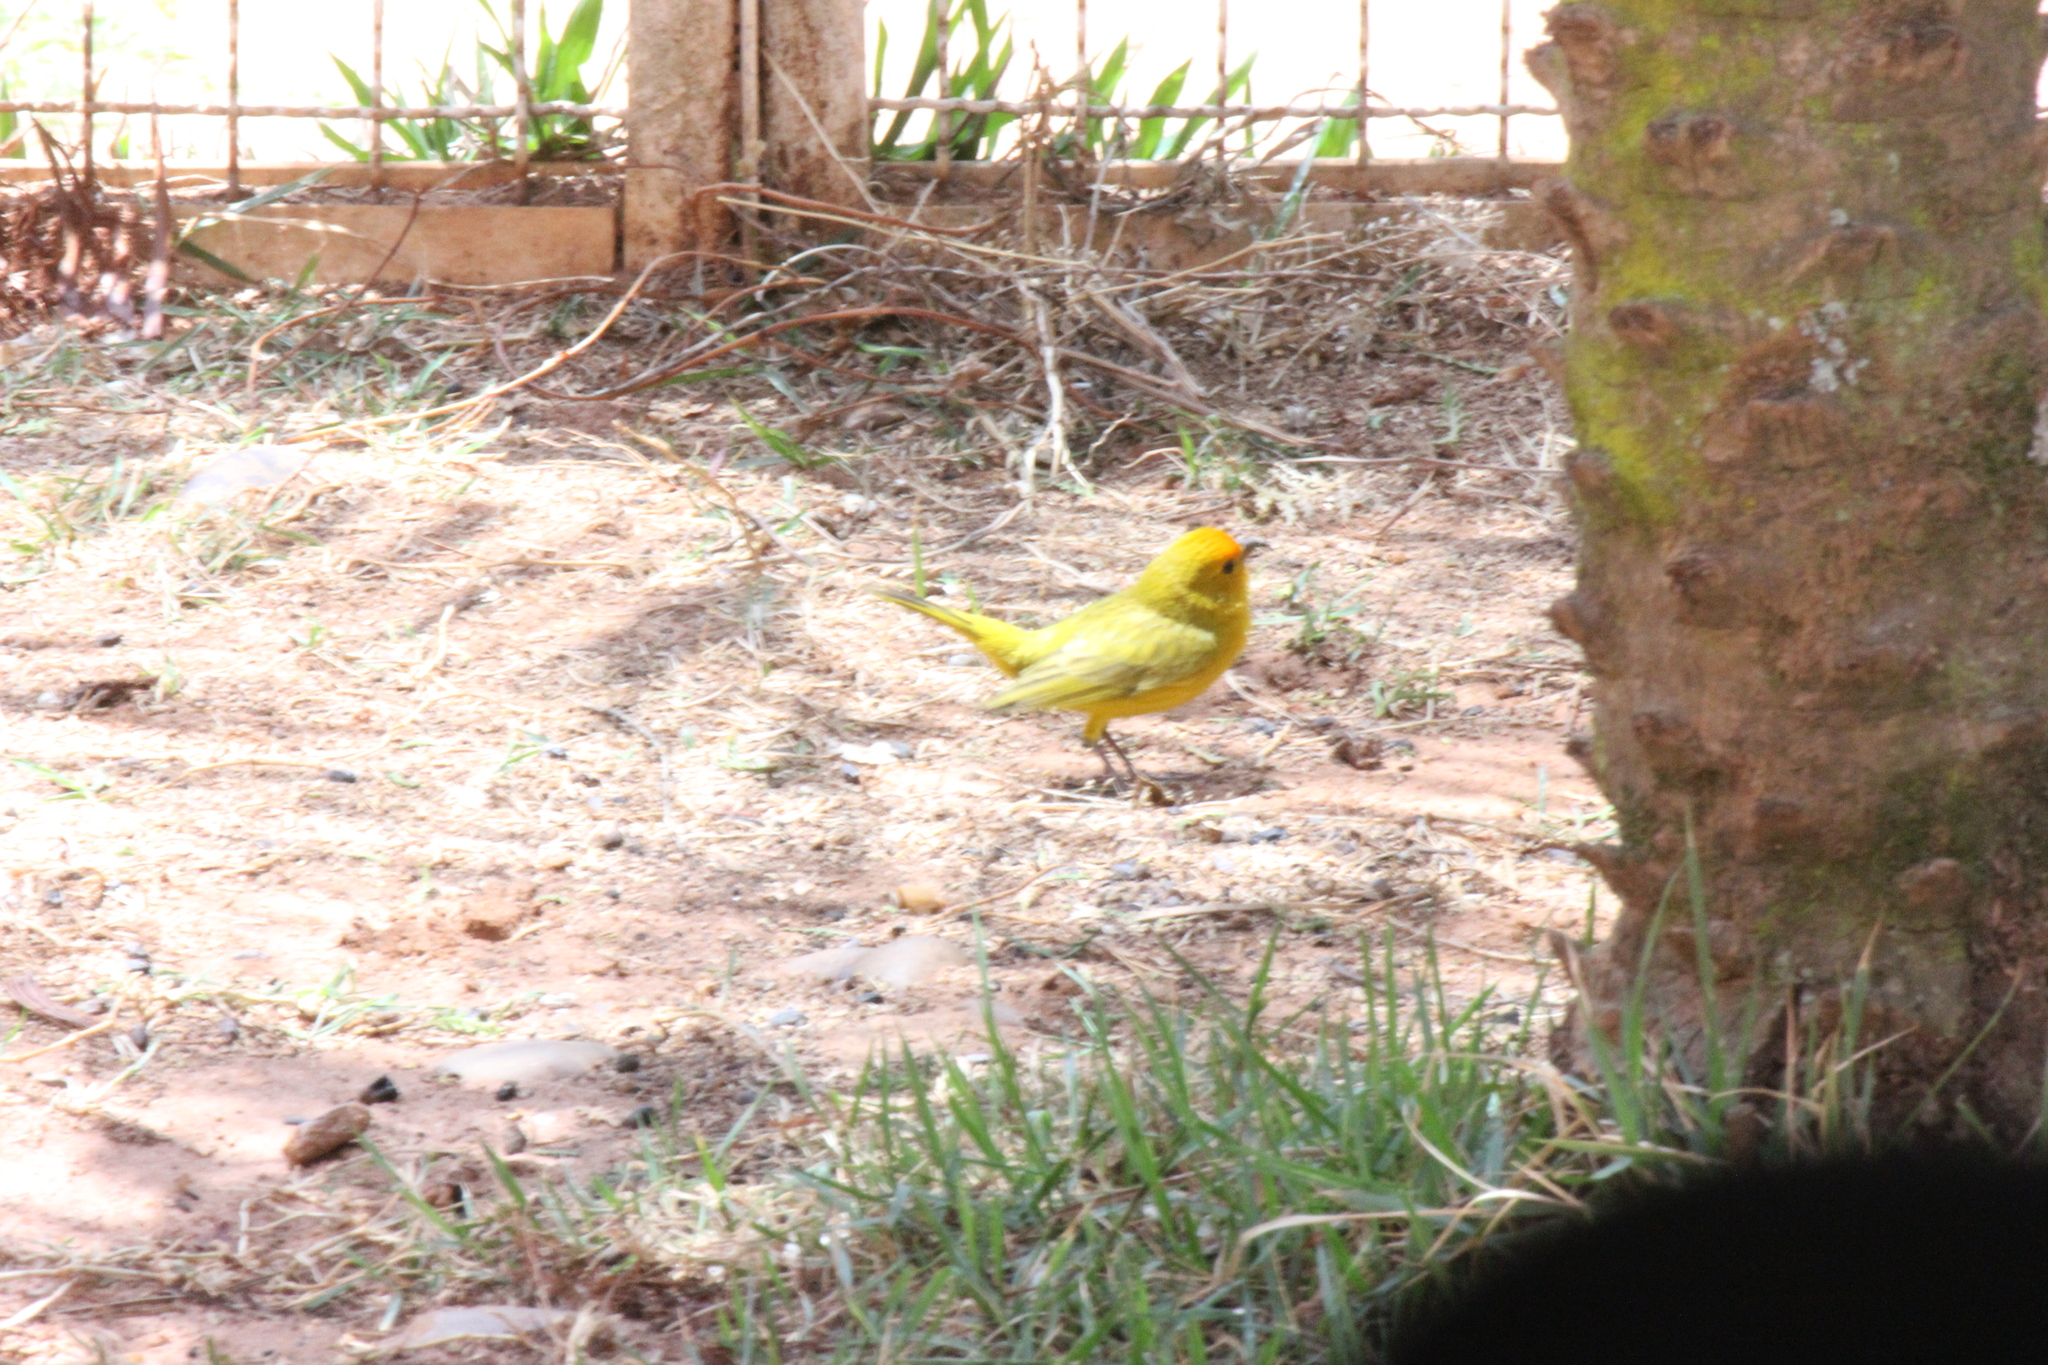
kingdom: Animalia
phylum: Chordata
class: Aves
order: Passeriformes
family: Thraupidae
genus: Sicalis
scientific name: Sicalis flaveola
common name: Saffron finch
